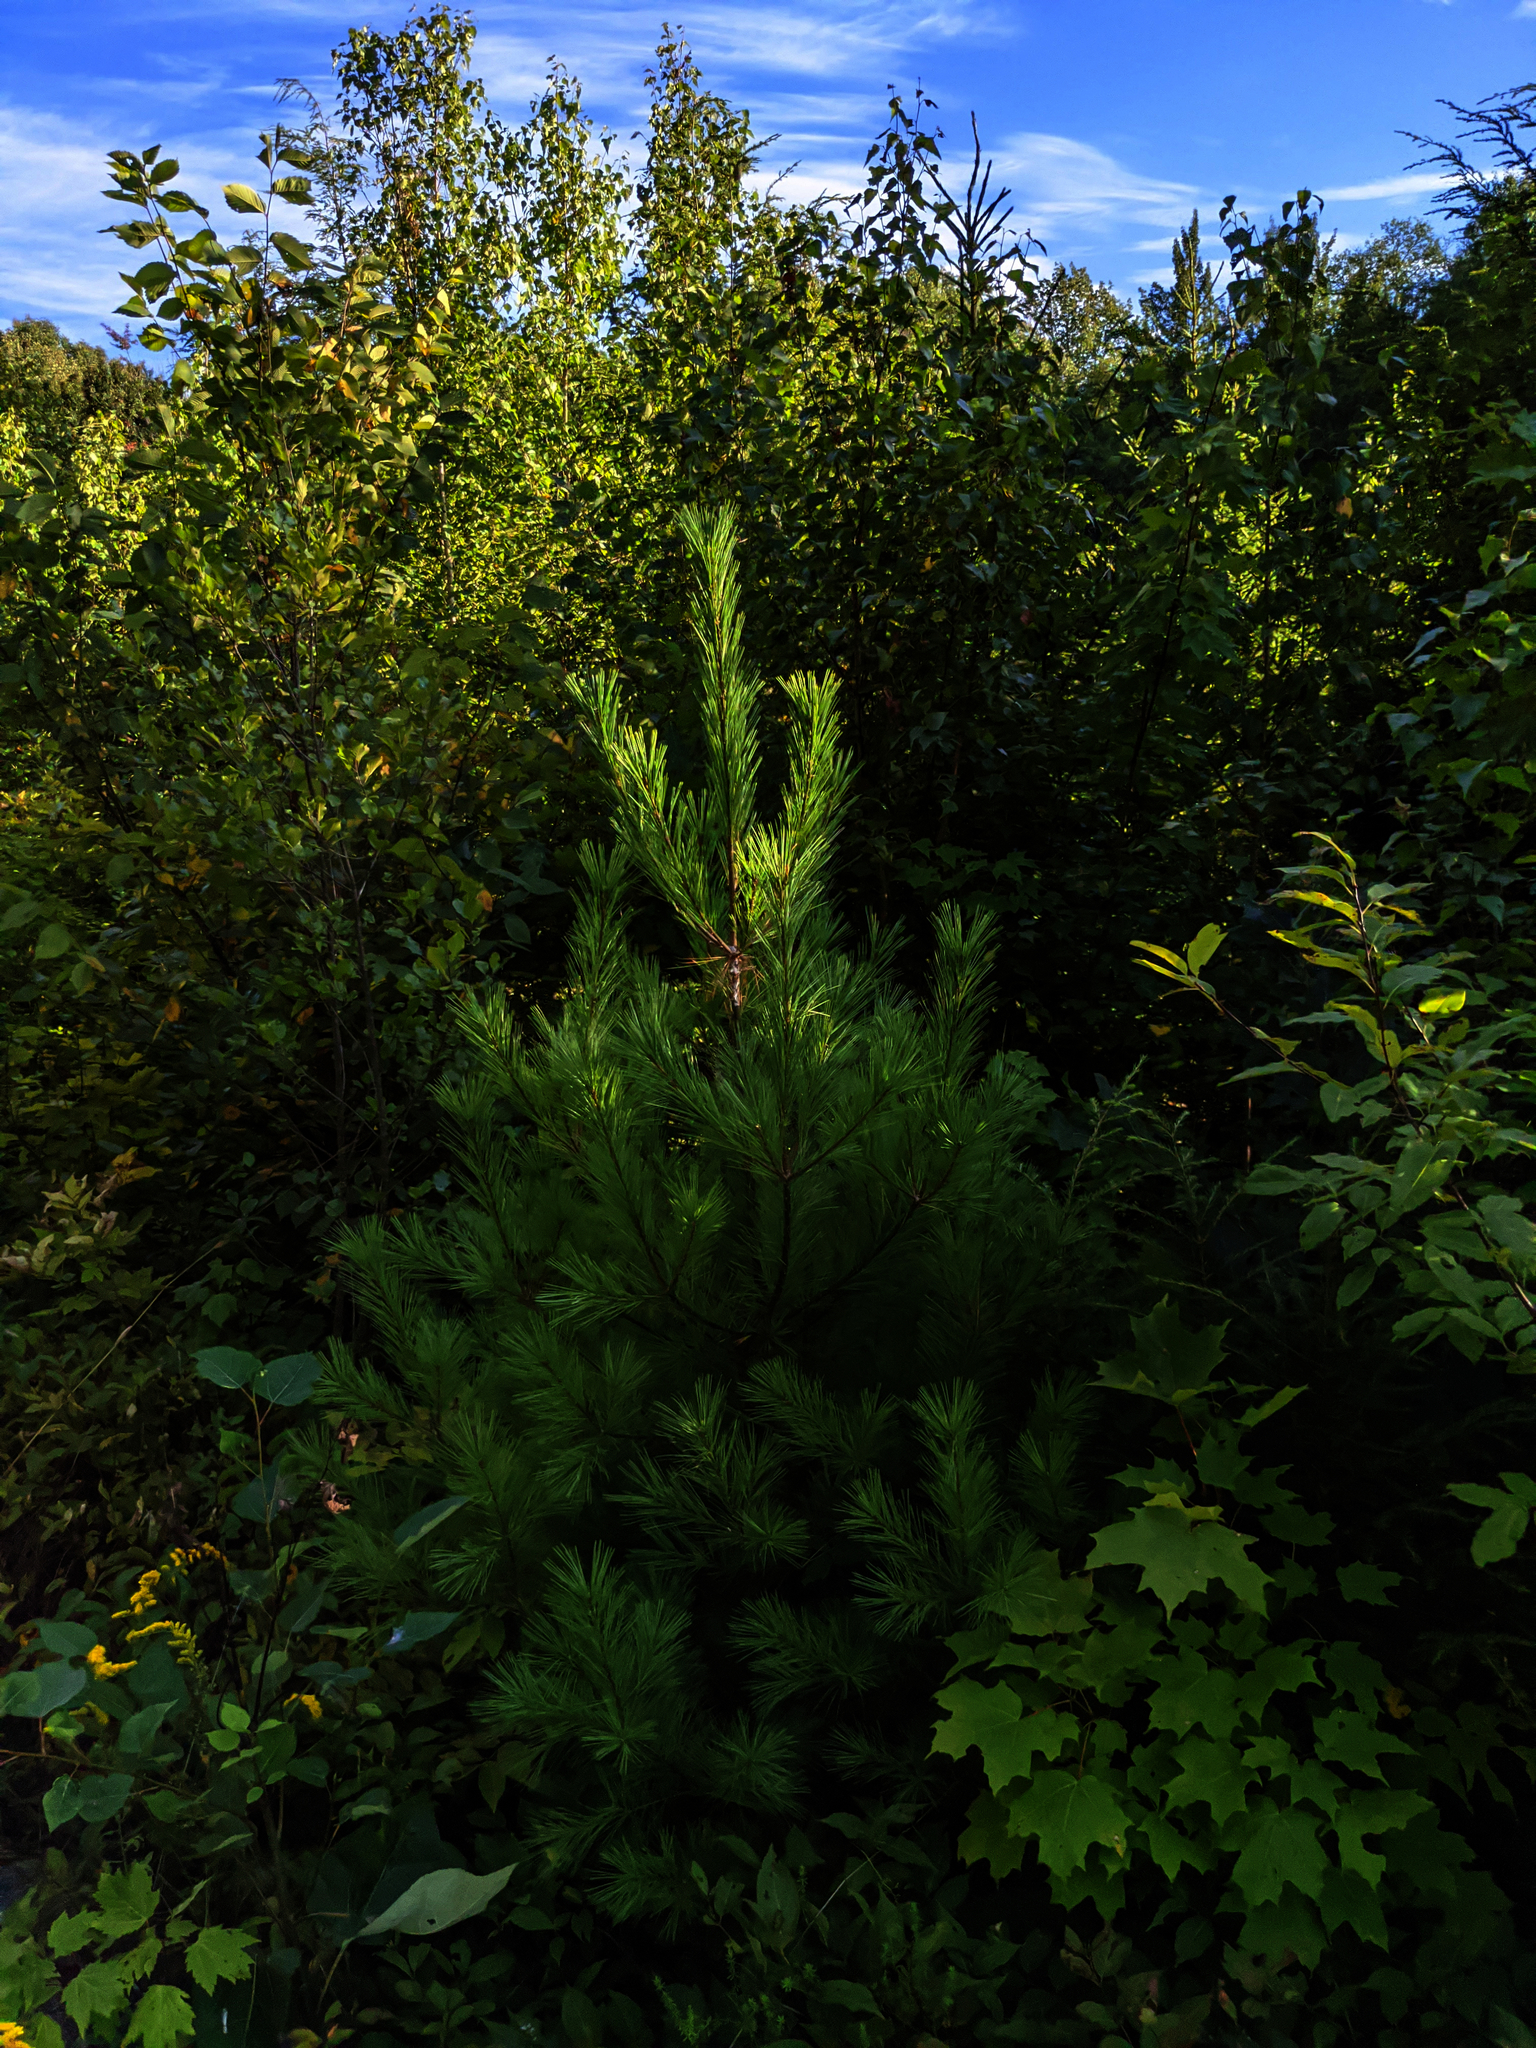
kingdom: Plantae
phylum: Tracheophyta
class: Magnoliopsida
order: Sapindales
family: Sapindaceae
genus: Acer
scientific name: Acer saccharum
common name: Sugar maple
